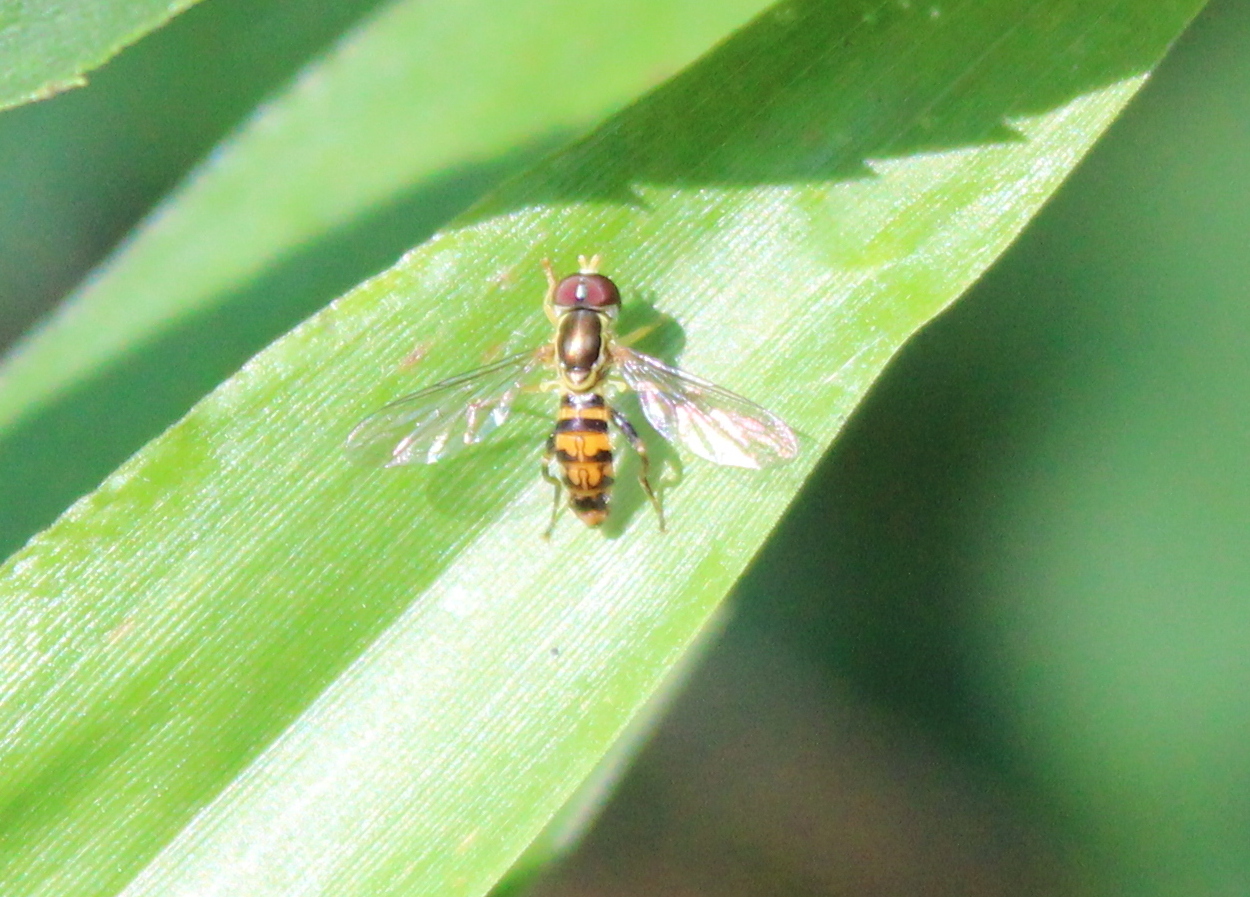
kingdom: Animalia
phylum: Arthropoda
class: Insecta
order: Diptera
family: Syrphidae
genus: Toxomerus
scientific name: Toxomerus geminatus
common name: Eastern calligrapher
